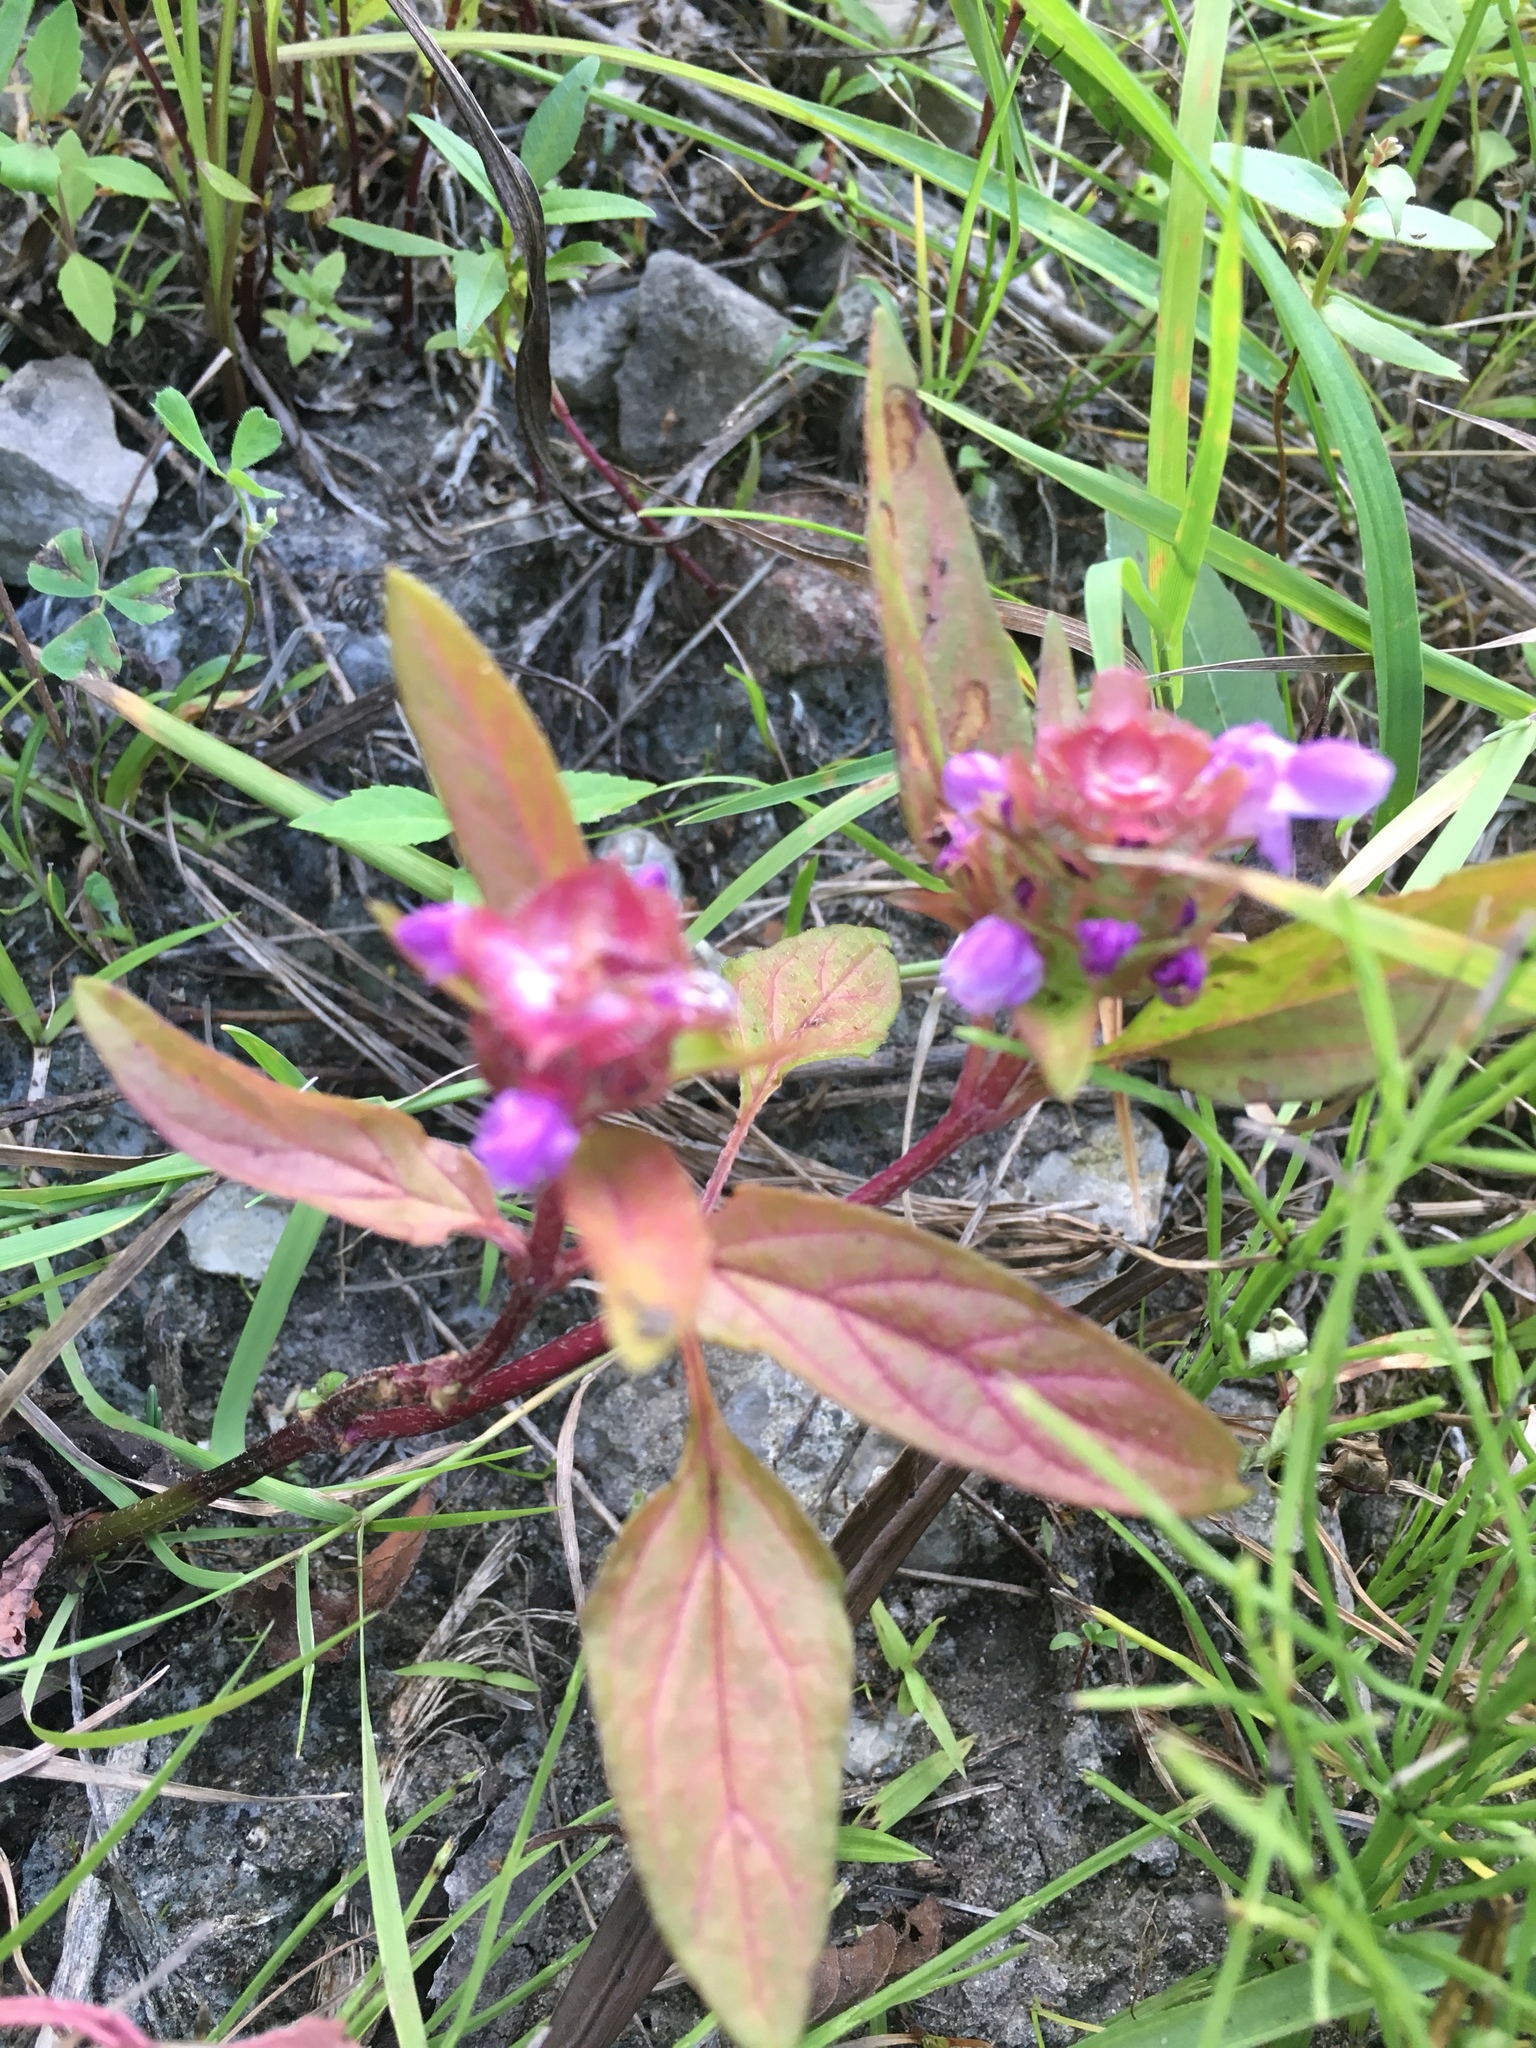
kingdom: Plantae
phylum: Tracheophyta
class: Magnoliopsida
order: Lamiales
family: Lamiaceae
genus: Prunella
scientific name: Prunella vulgaris
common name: Heal-all
